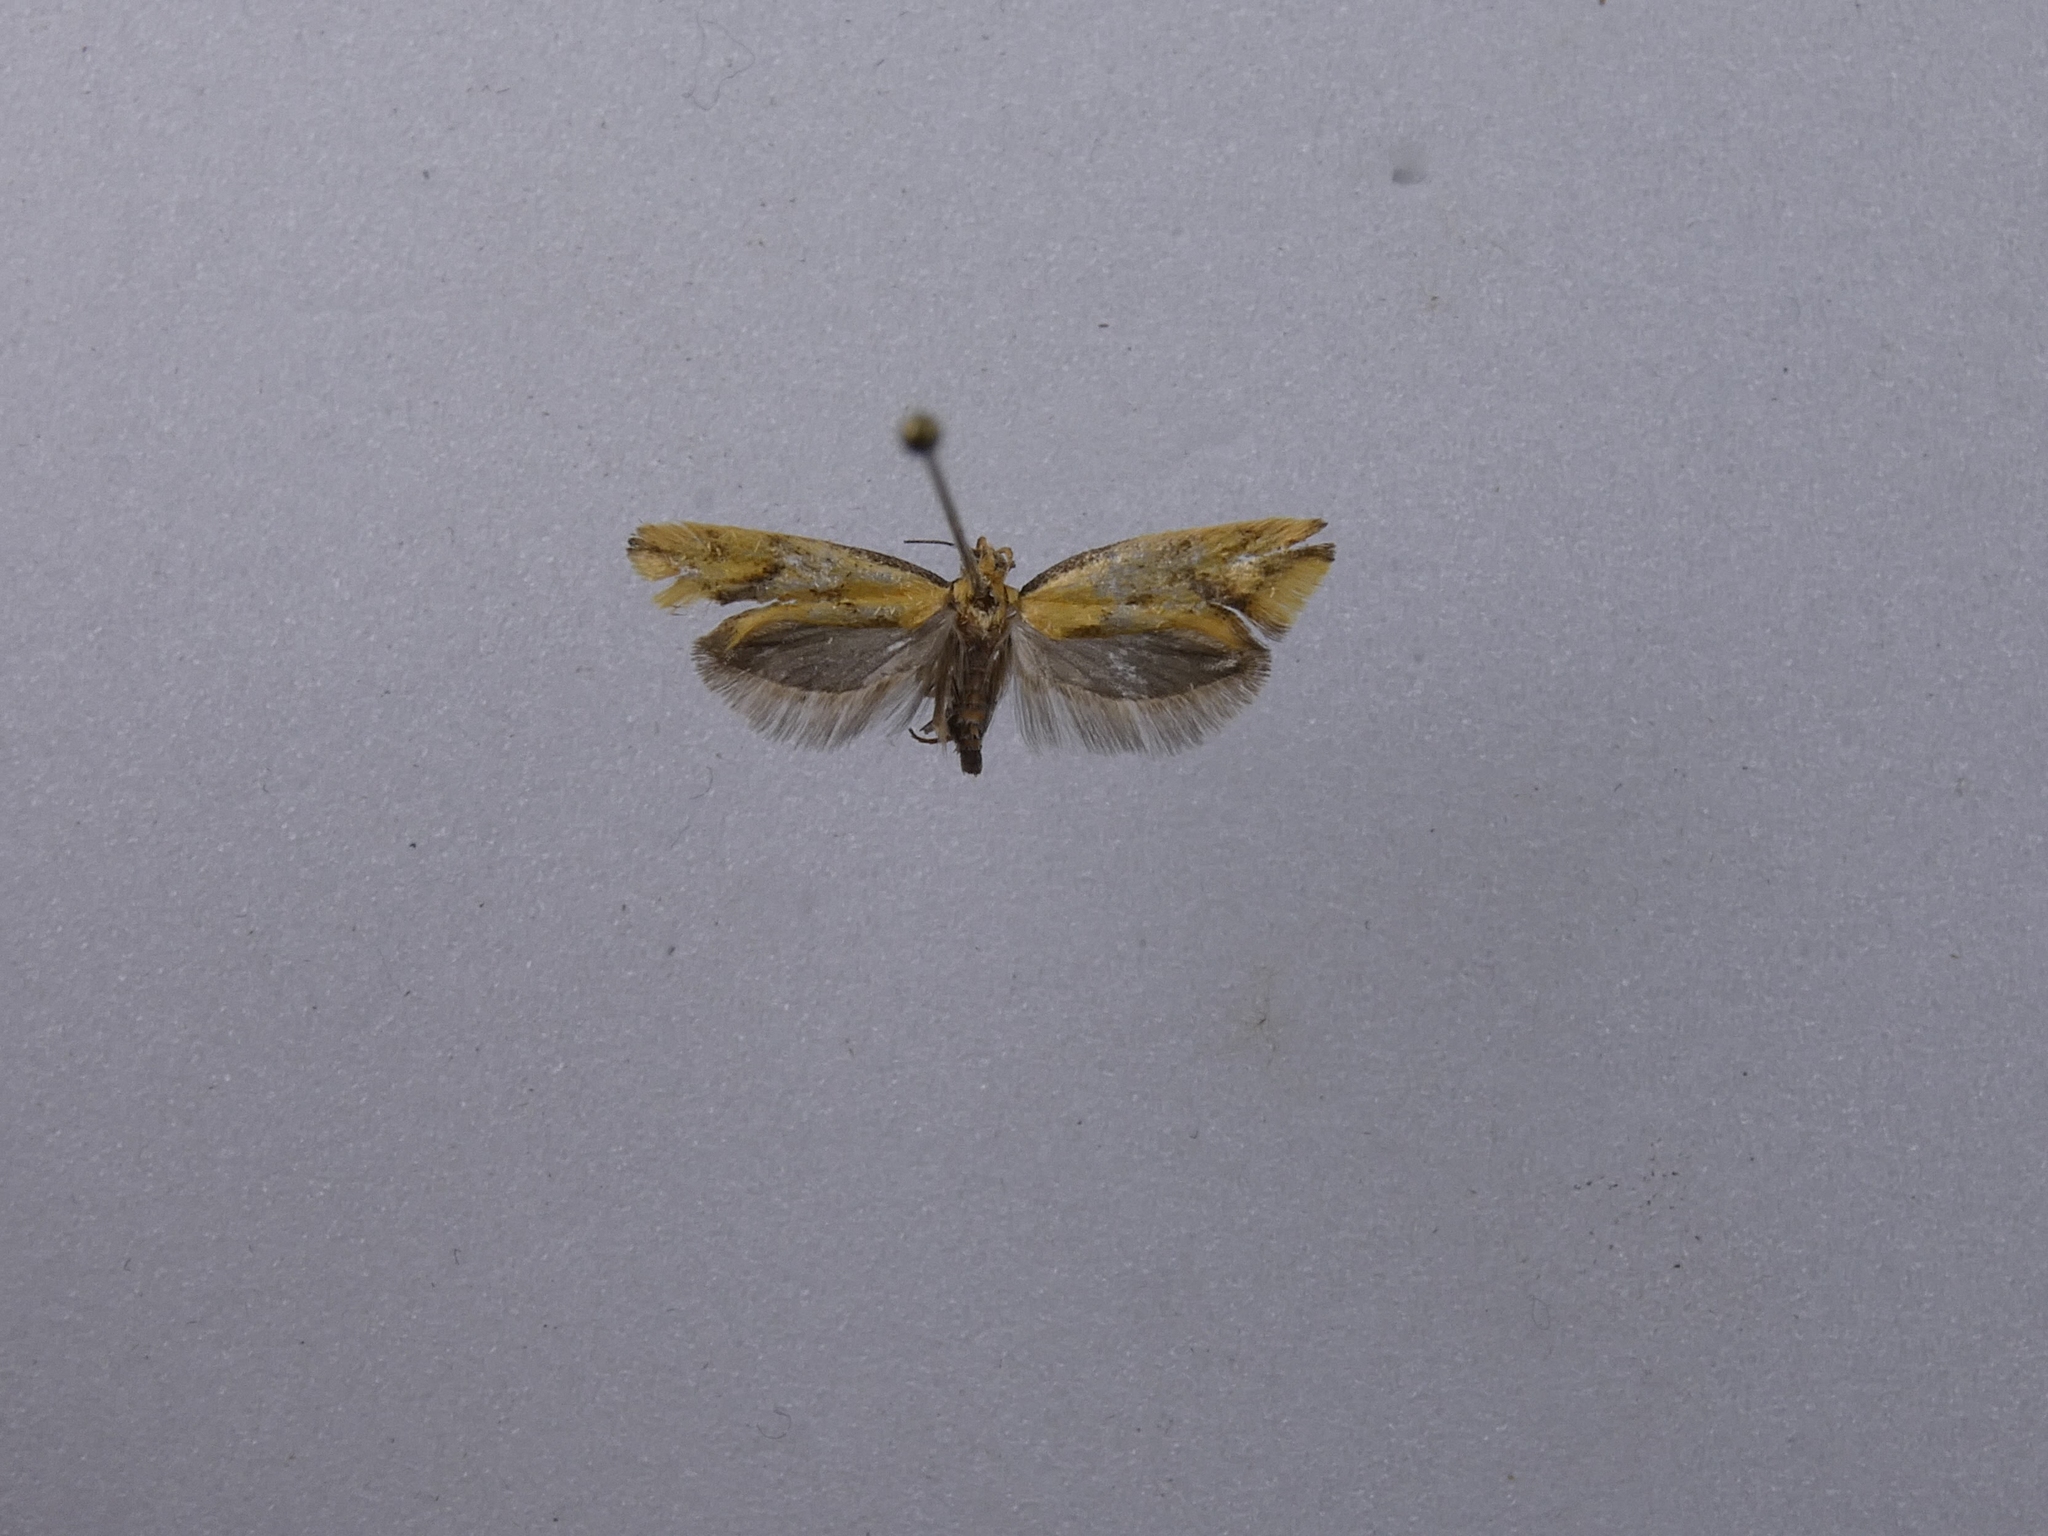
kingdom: Animalia
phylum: Arthropoda
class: Insecta
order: Lepidoptera
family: Oecophoridae
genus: Tingena
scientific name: Tingena actinias
